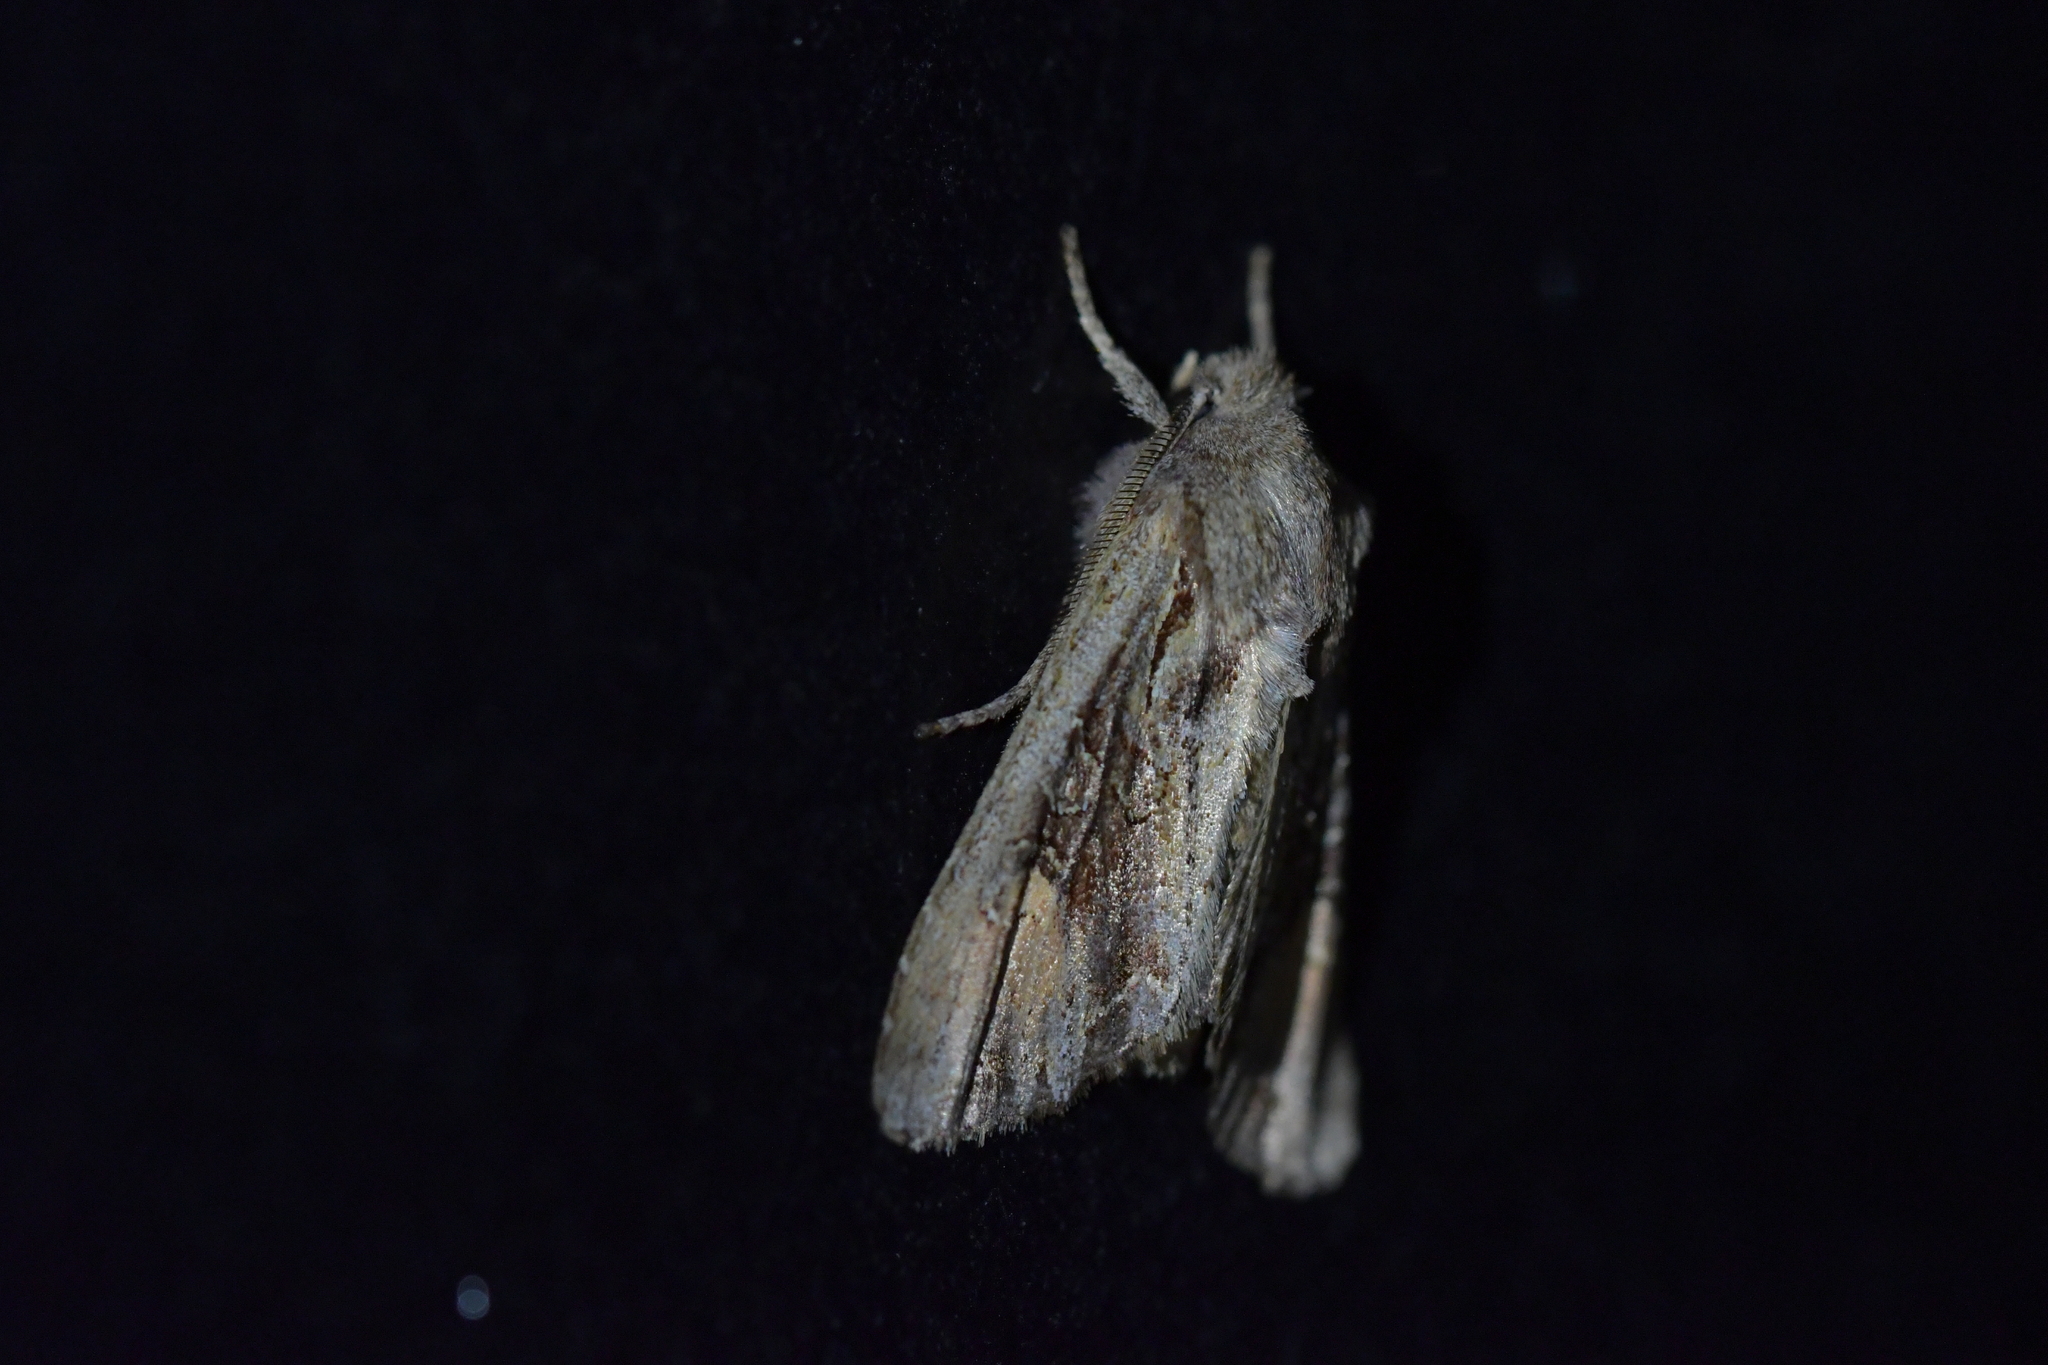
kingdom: Animalia
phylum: Arthropoda
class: Insecta
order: Lepidoptera
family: Noctuidae
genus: Ichneutica
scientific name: Ichneutica
